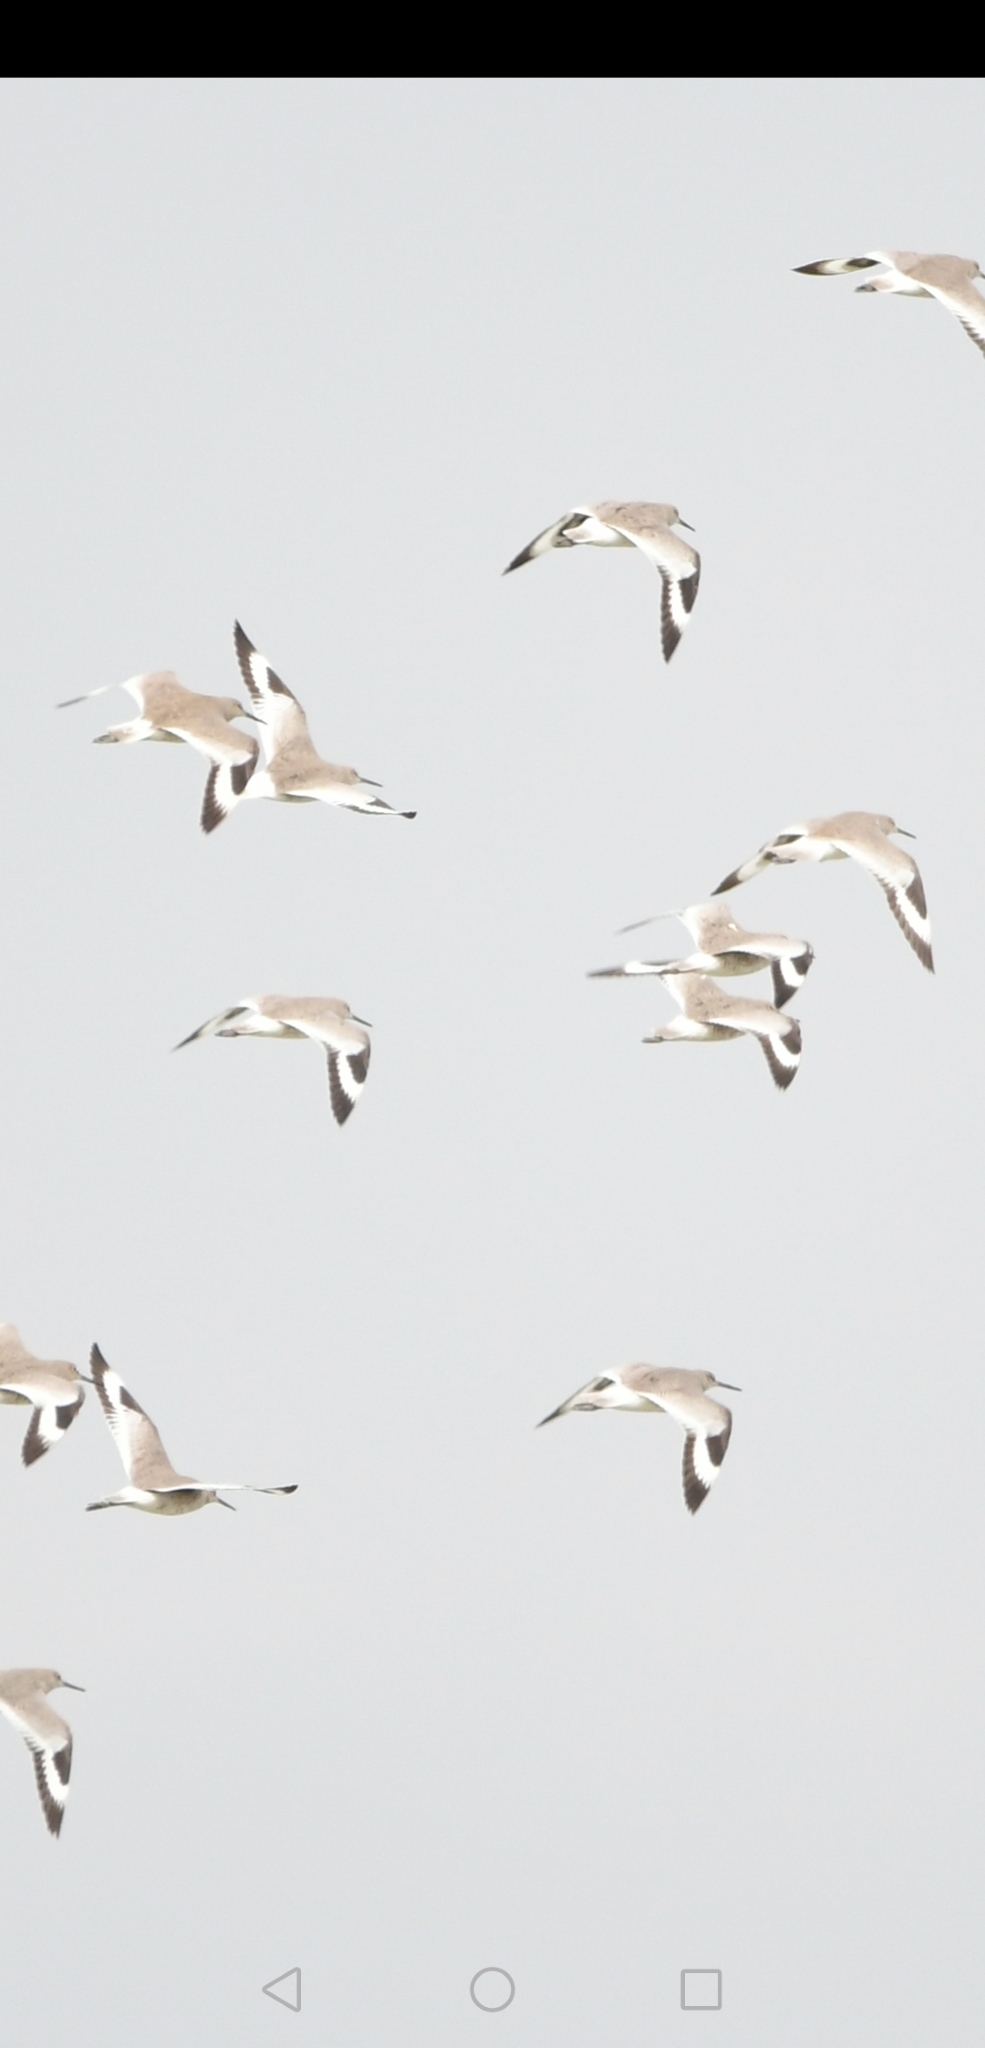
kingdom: Animalia
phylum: Chordata
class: Aves
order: Charadriiformes
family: Scolopacidae
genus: Tringa
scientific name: Tringa semipalmata
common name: Willet
